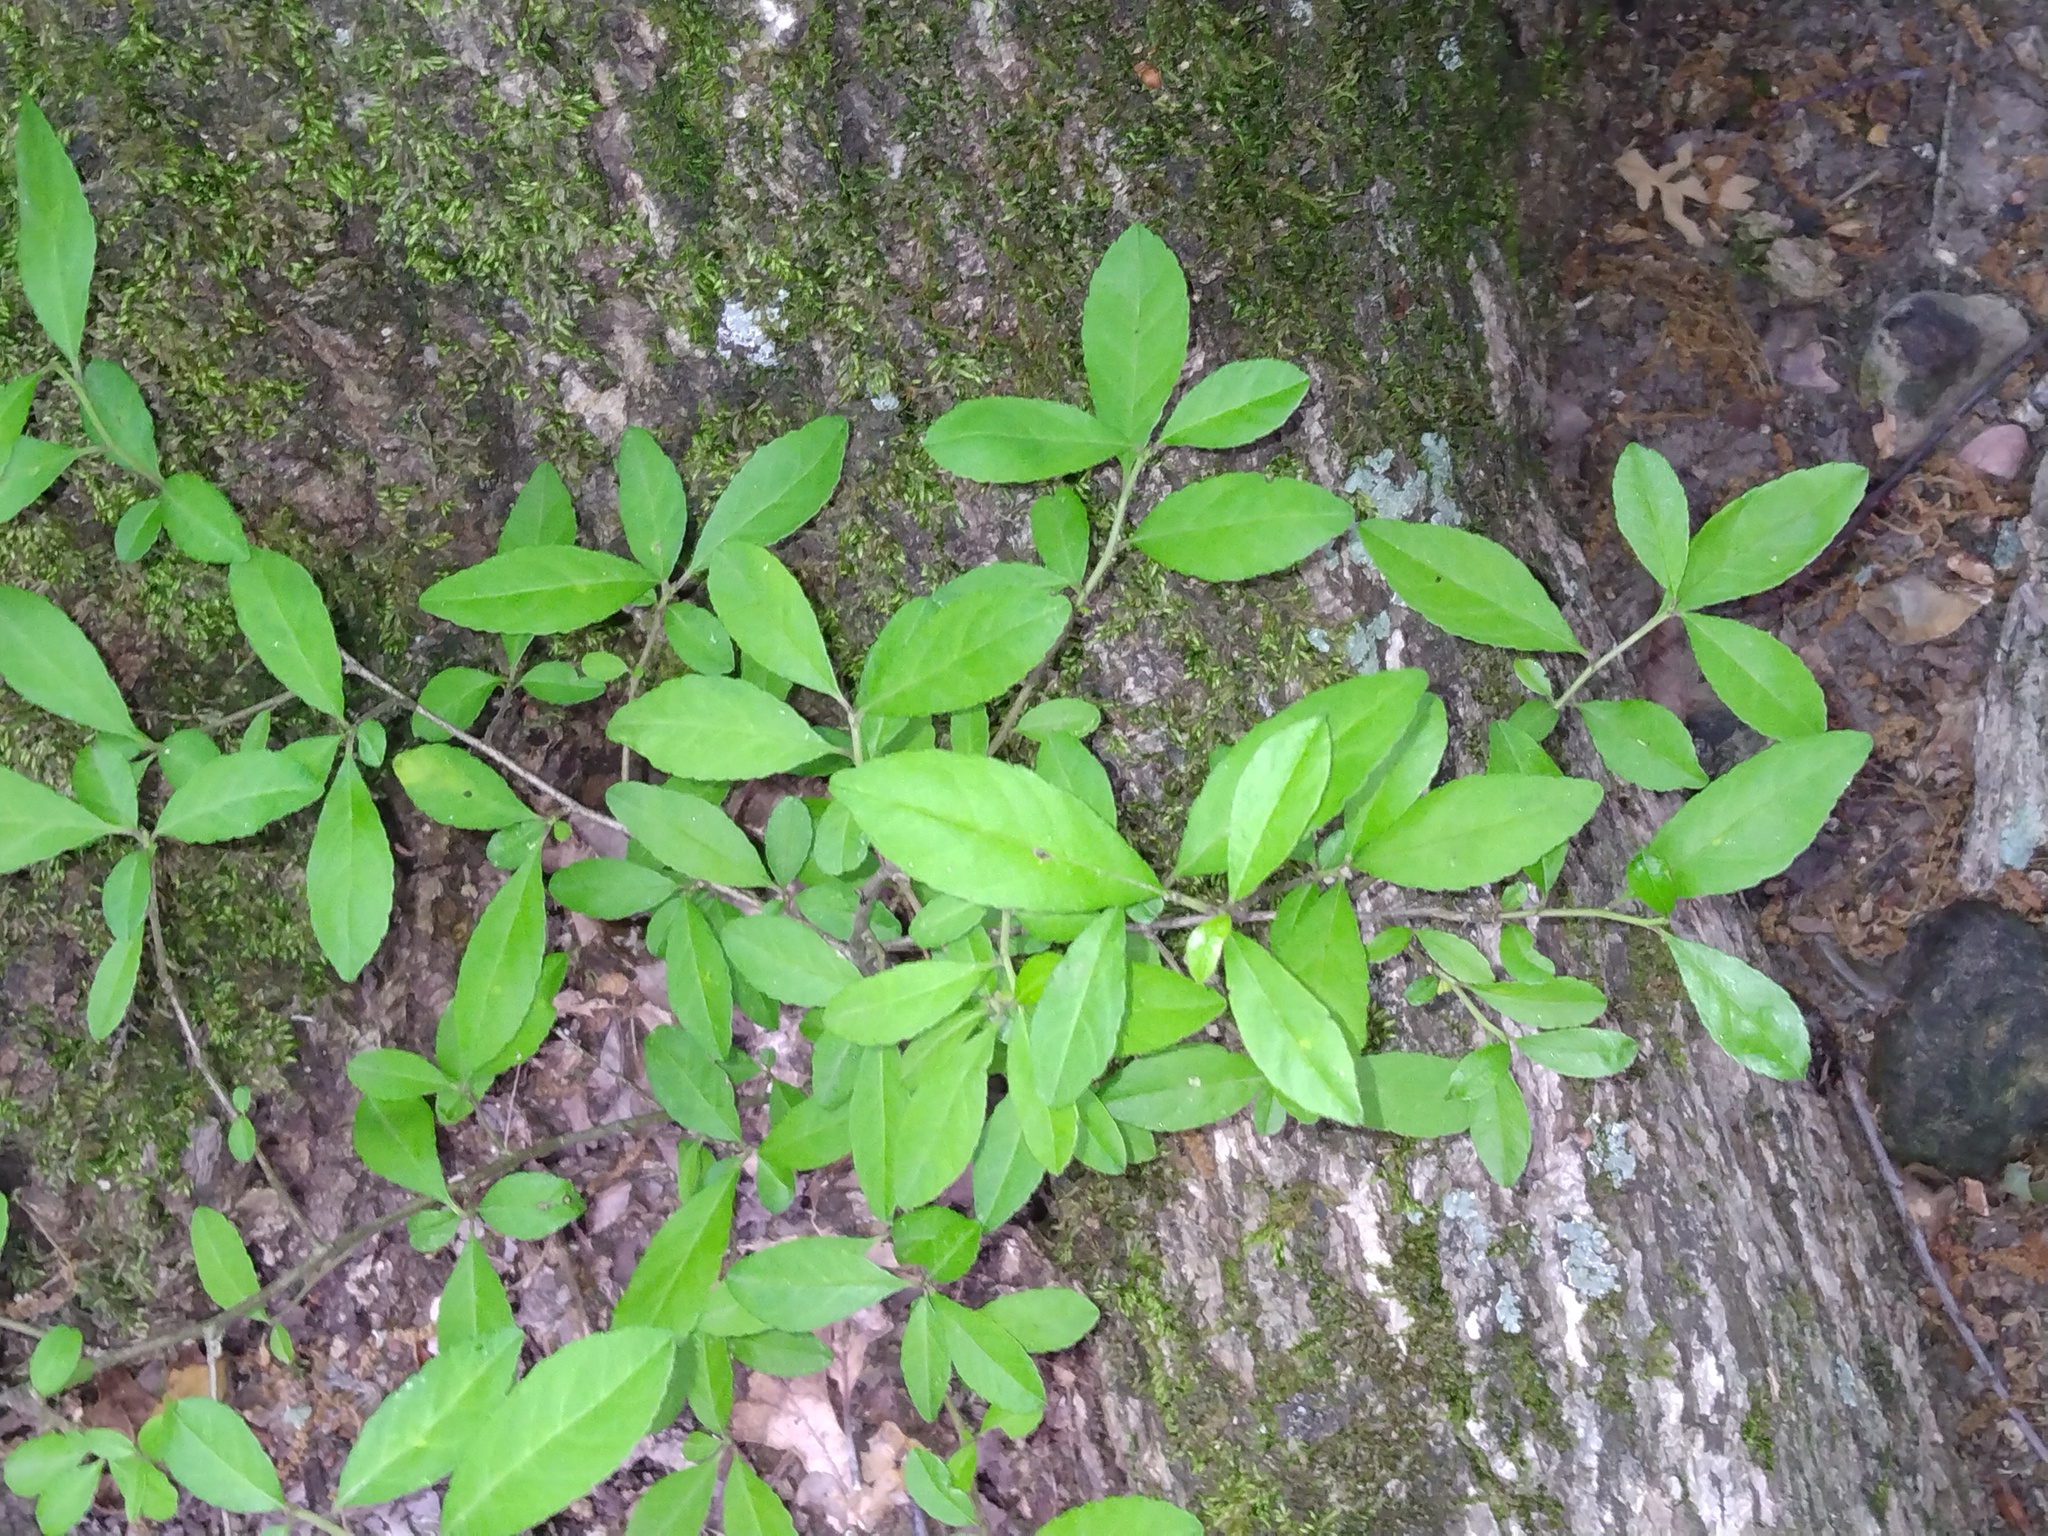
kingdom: Plantae
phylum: Tracheophyta
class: Magnoliopsida
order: Aquifoliales
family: Aquifoliaceae
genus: Ilex
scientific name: Ilex decidua
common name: Possum-haw
